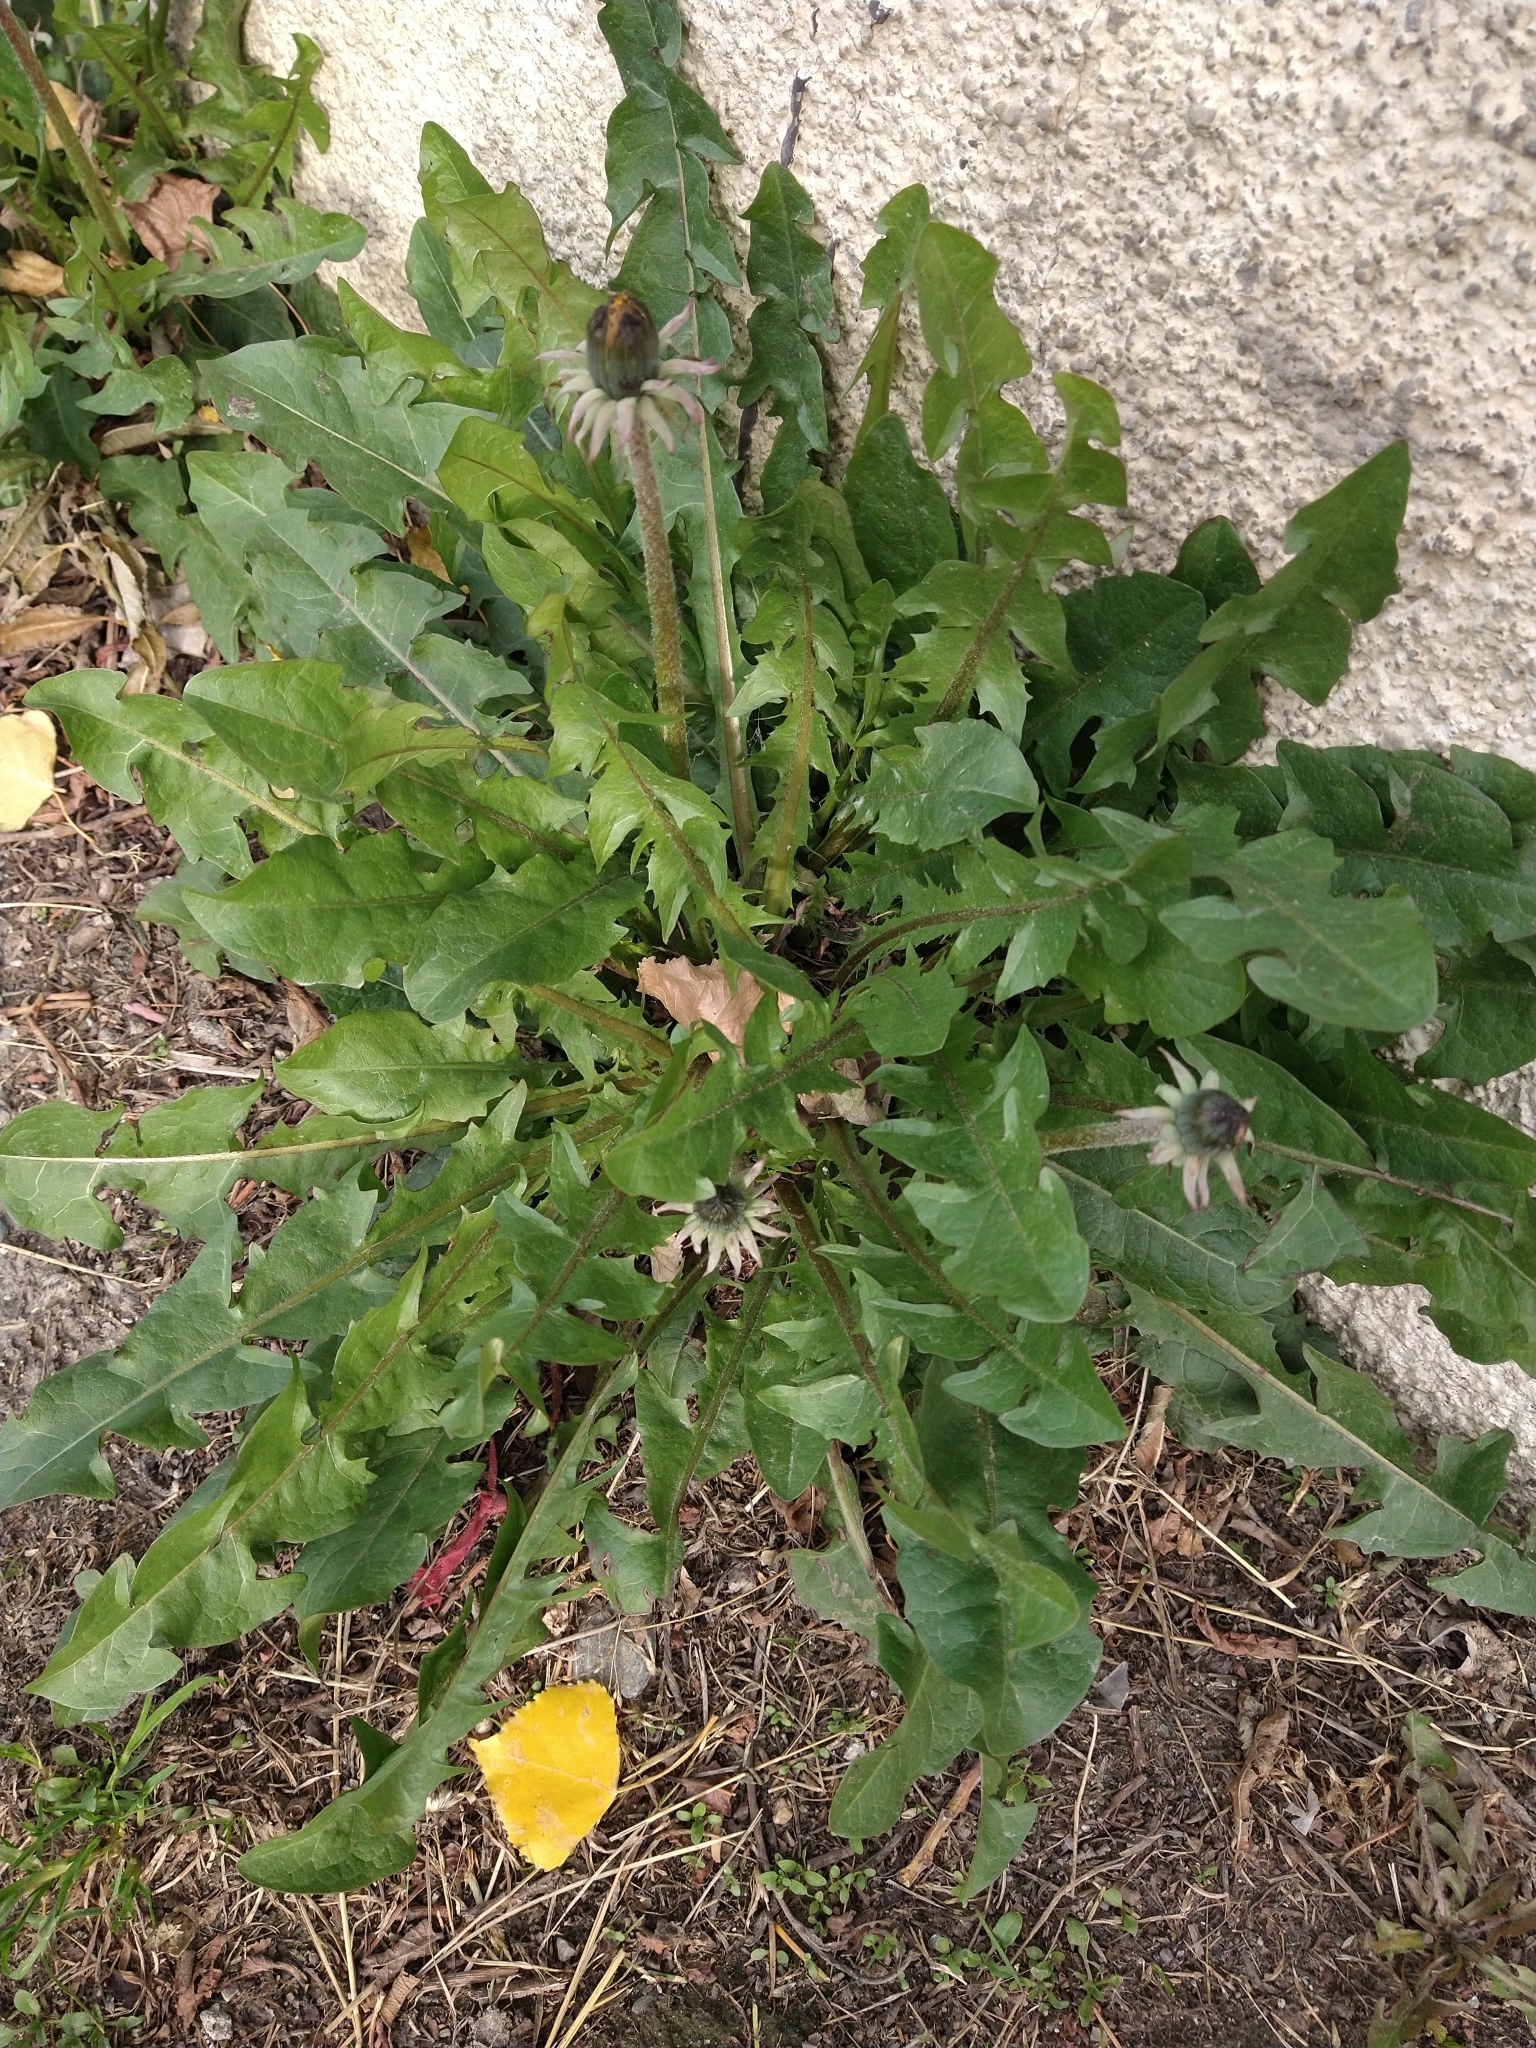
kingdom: Plantae
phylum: Tracheophyta
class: Magnoliopsida
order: Asterales
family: Asteraceae
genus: Taraxacum
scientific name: Taraxacum officinale
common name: Common dandelion
